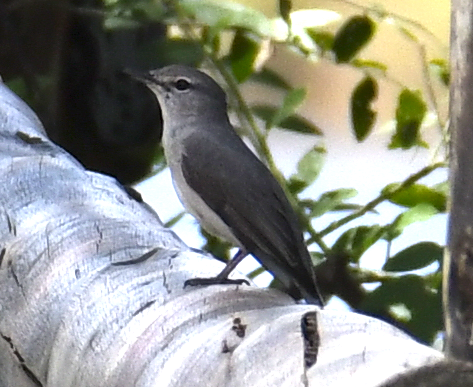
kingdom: Animalia
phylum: Chordata
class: Aves
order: Passeriformes
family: Muscicapidae
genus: Muscicapa
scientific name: Muscicapa caerulescens
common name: Ashy flycatcher
